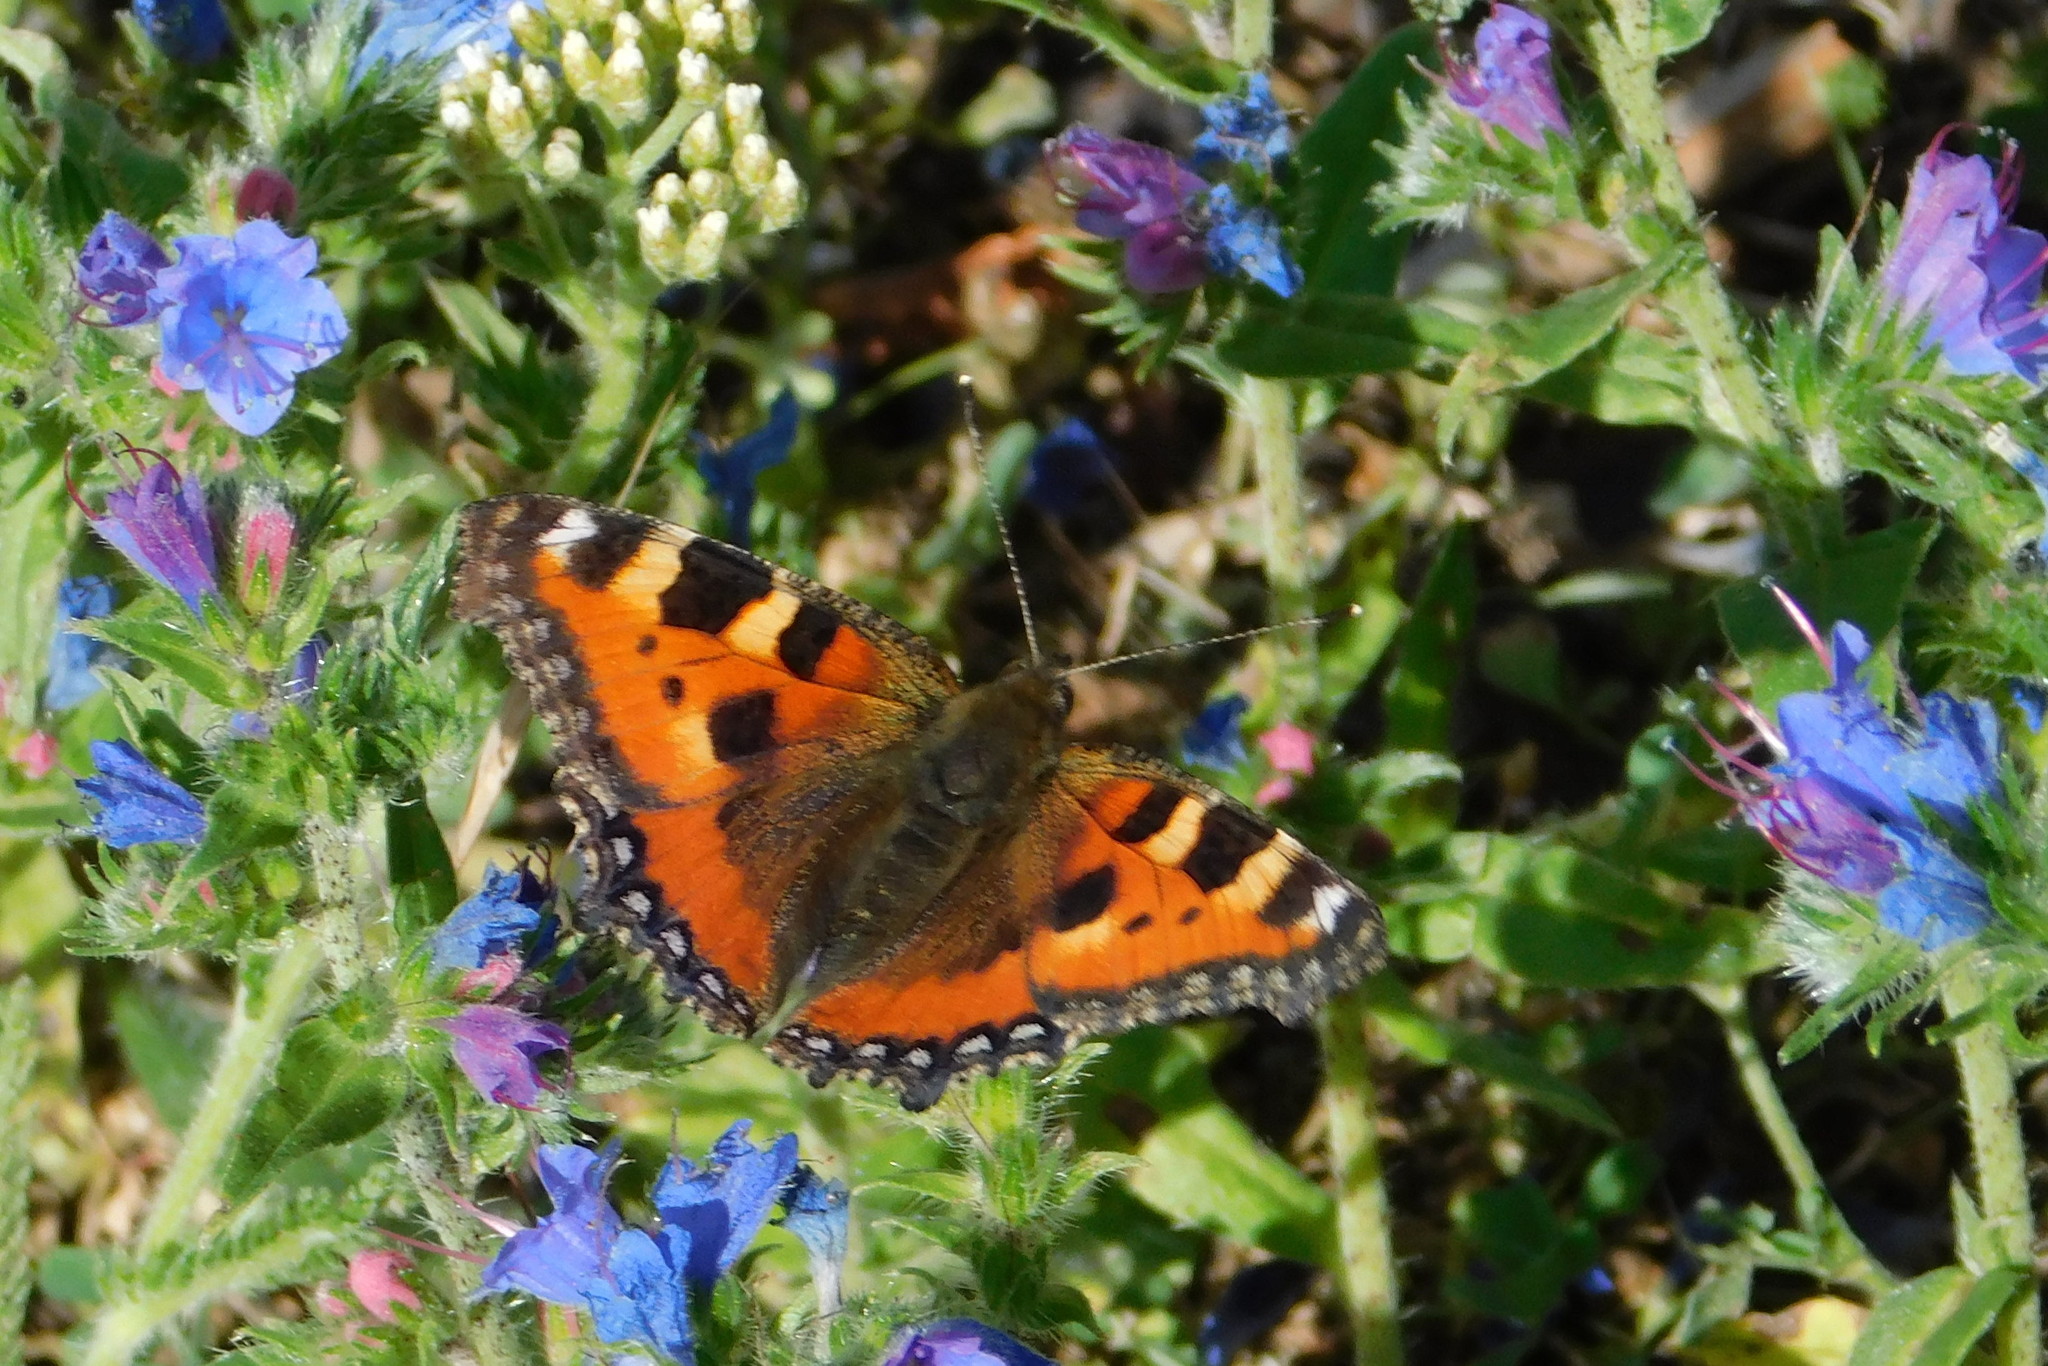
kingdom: Animalia
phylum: Arthropoda
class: Insecta
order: Lepidoptera
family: Nymphalidae
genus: Aglais
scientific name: Aglais urticae
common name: Small tortoiseshell
